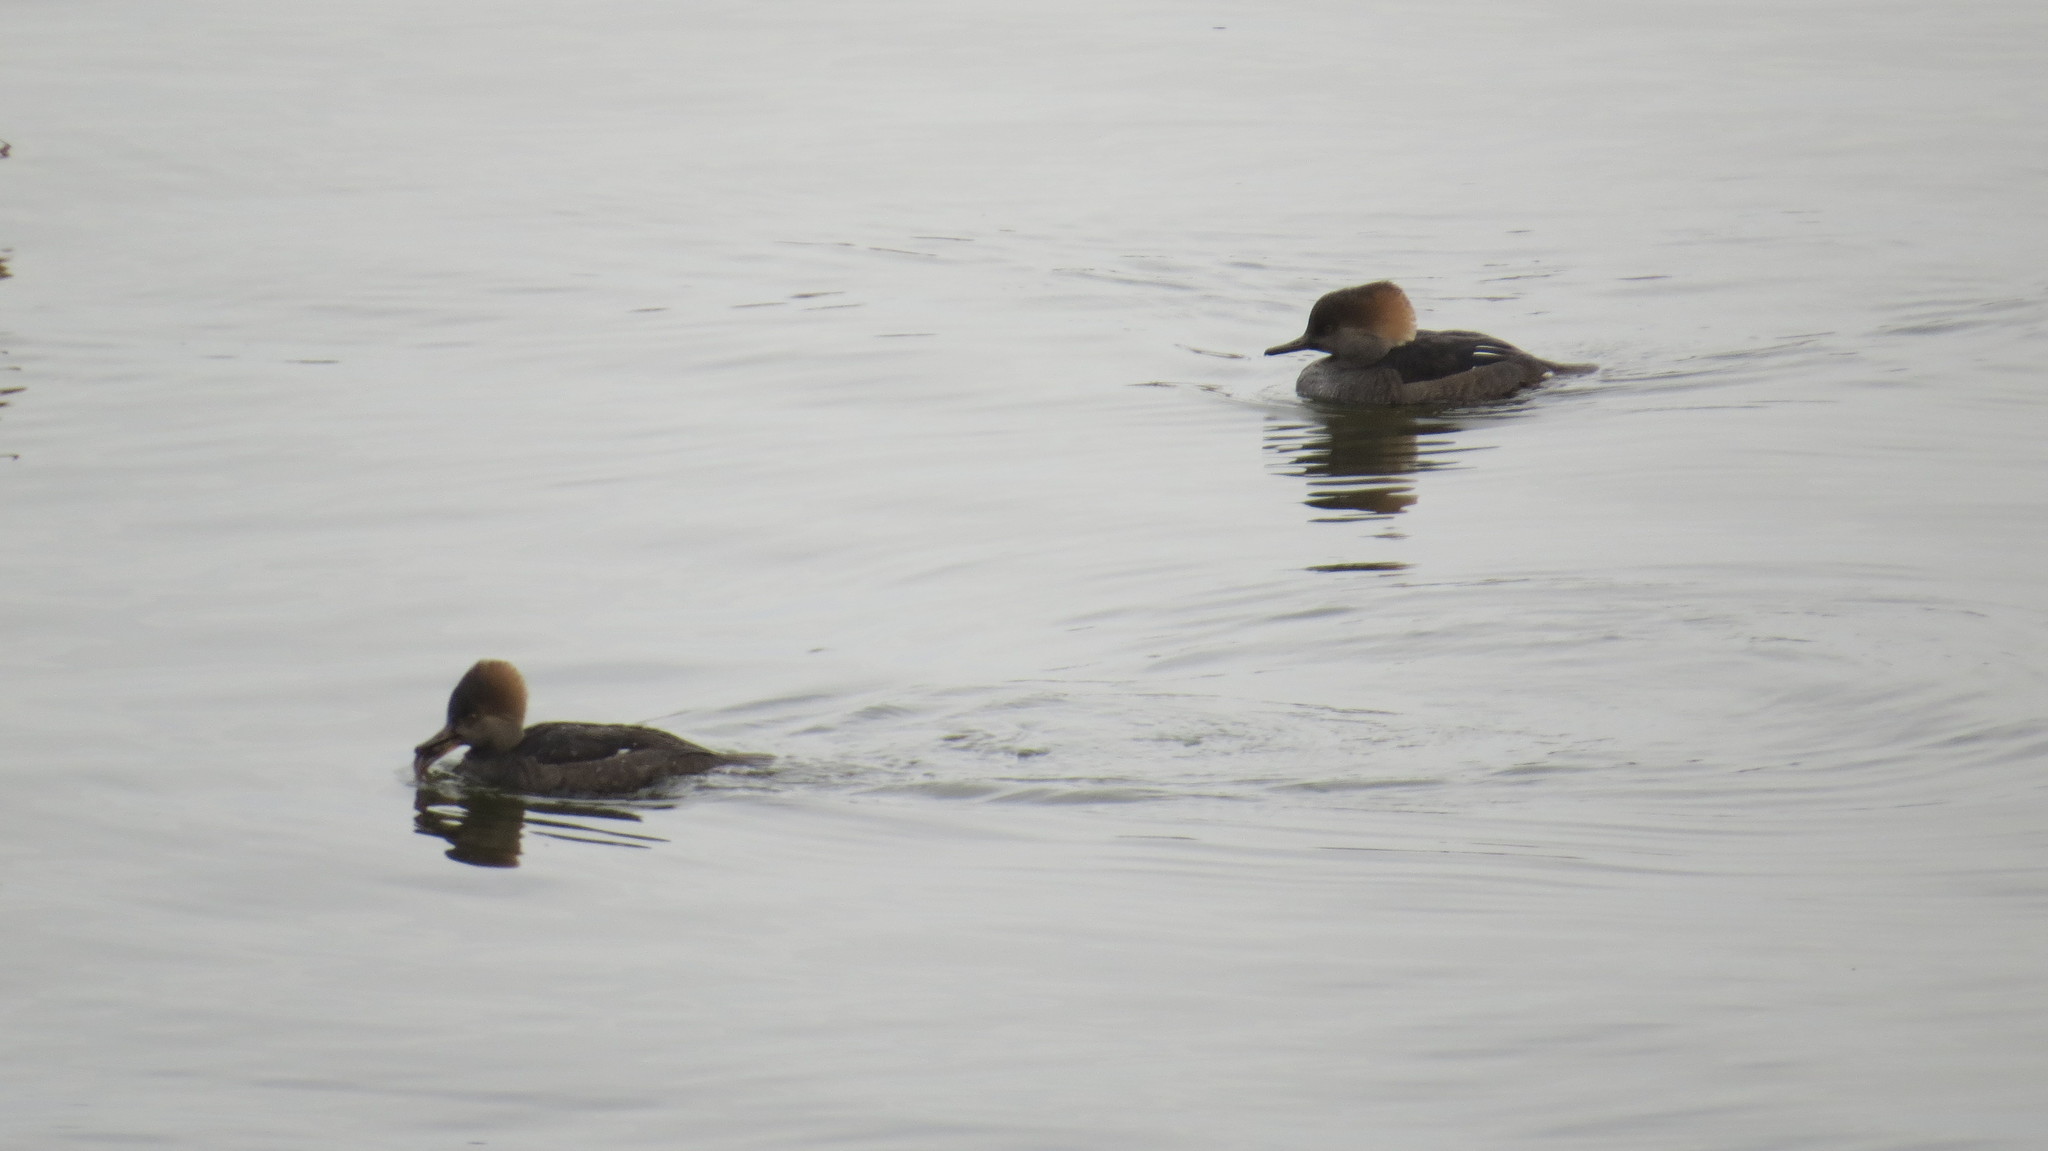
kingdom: Animalia
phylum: Chordata
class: Aves
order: Anseriformes
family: Anatidae
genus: Lophodytes
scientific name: Lophodytes cucullatus
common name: Hooded merganser
